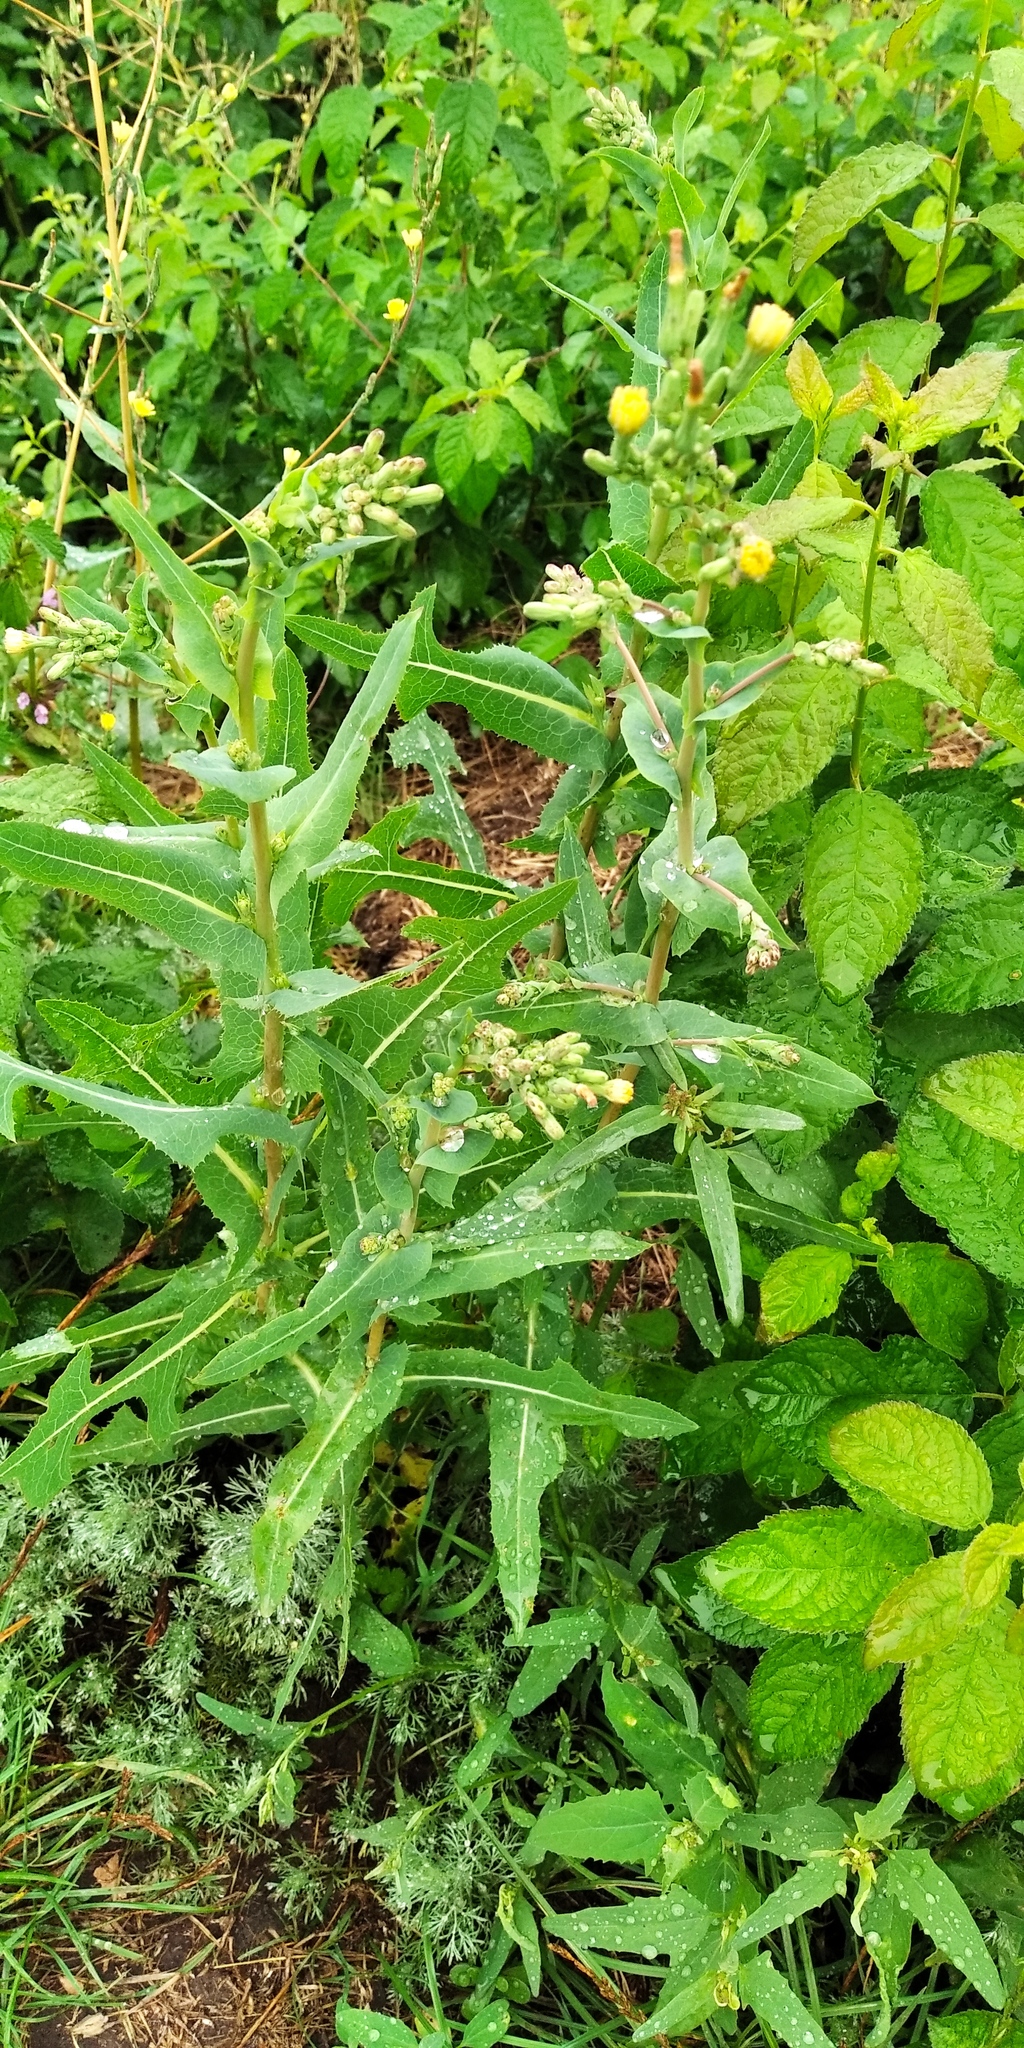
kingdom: Plantae
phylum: Tracheophyta
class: Magnoliopsida
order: Asterales
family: Asteraceae
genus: Lactuca
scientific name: Lactuca serriola
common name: Prickly lettuce
